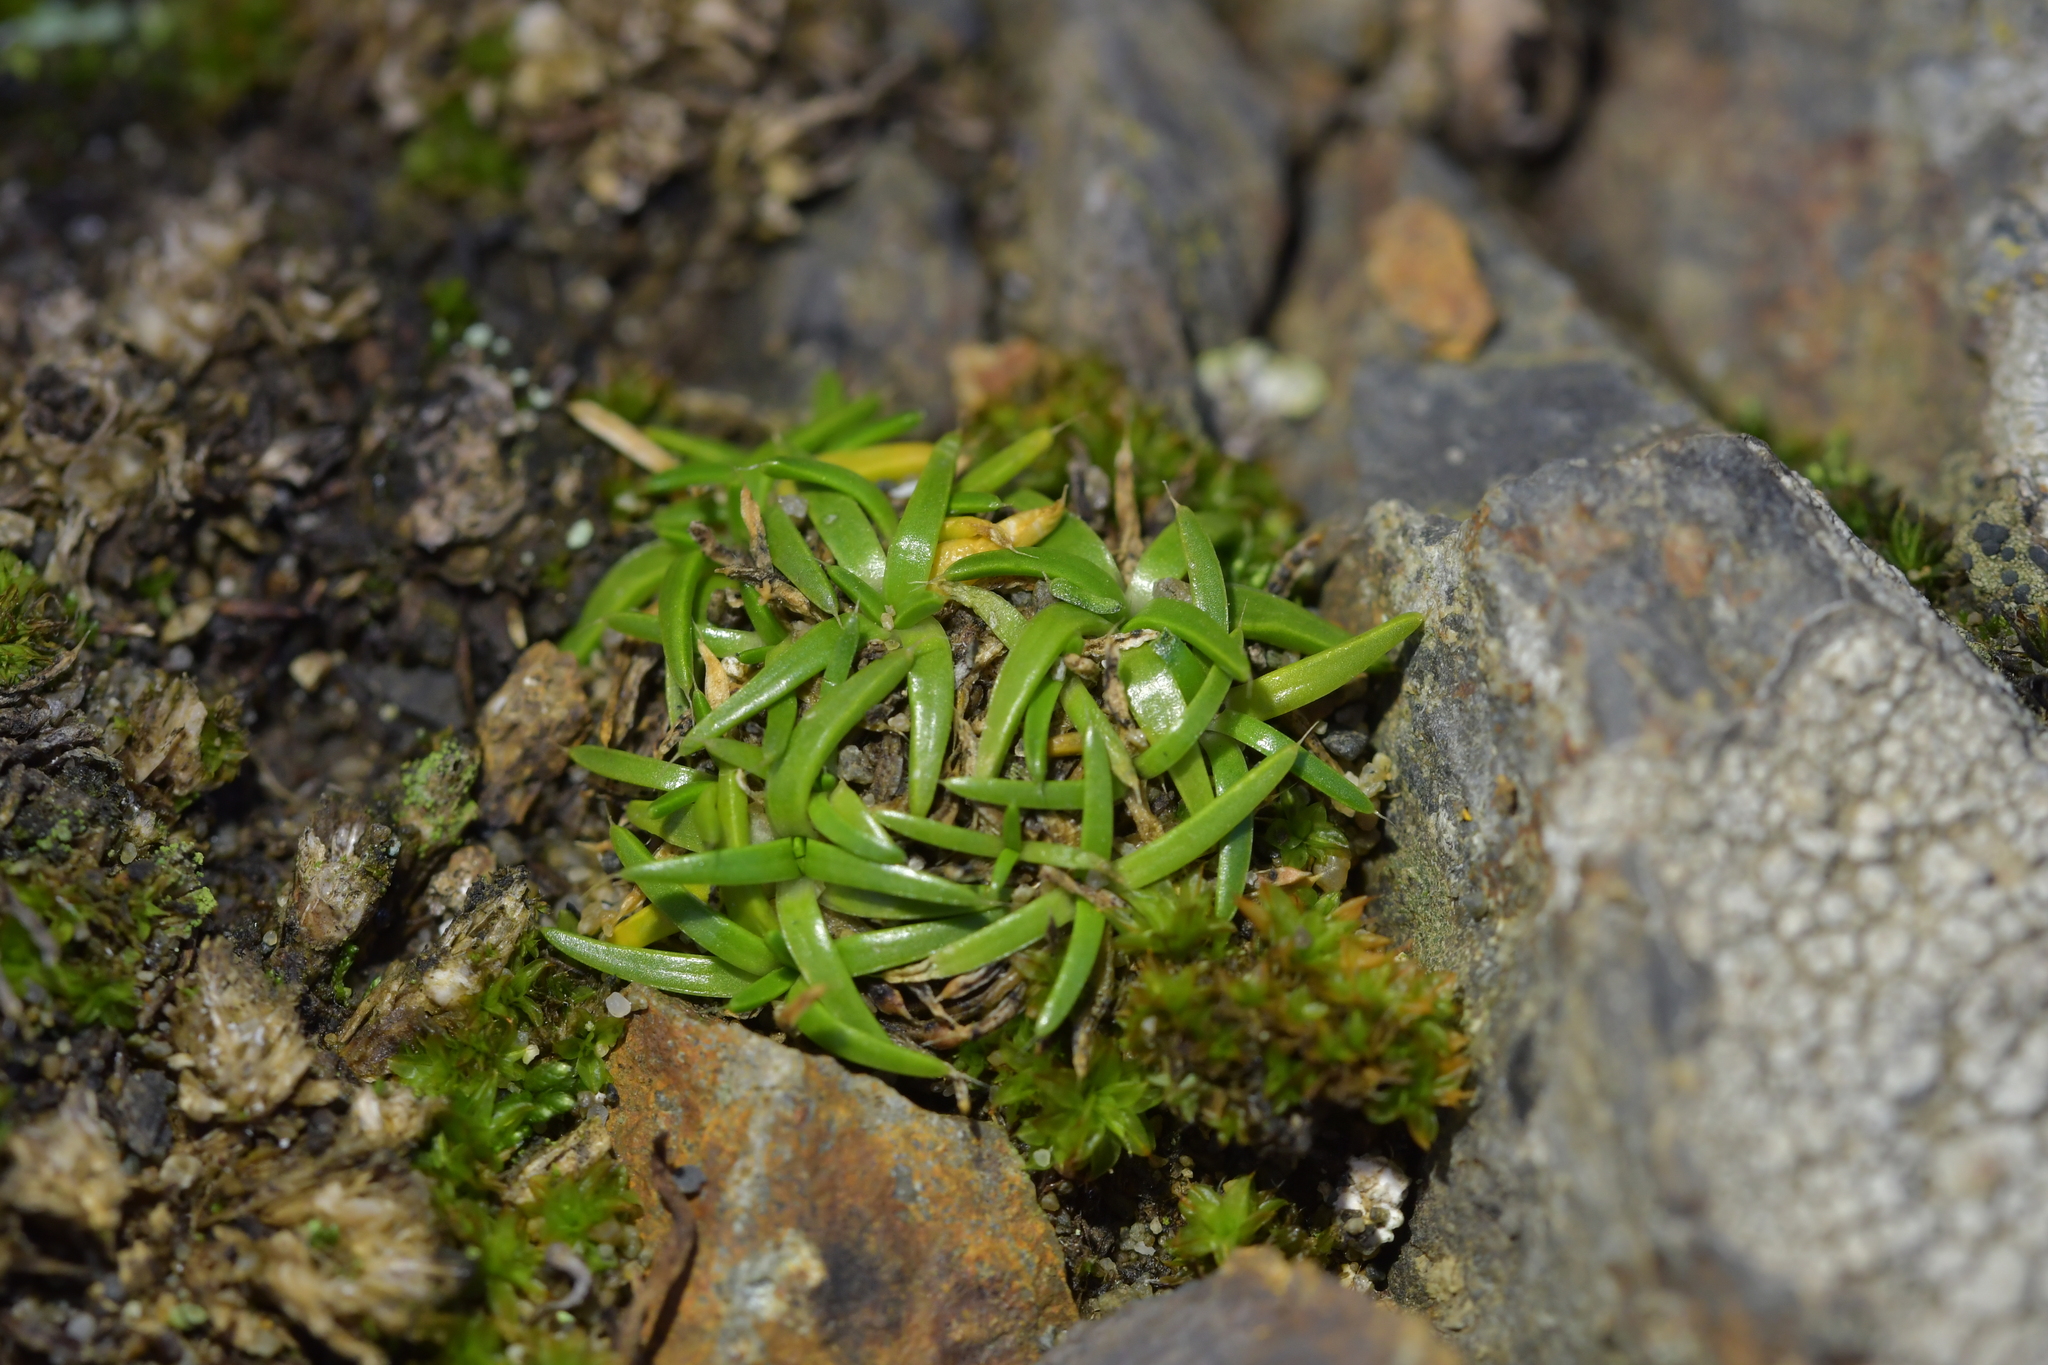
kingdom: Plantae
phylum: Tracheophyta
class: Magnoliopsida
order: Caryophyllales
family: Caryophyllaceae
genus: Sagina
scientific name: Sagina procumbens
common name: Procumbent pearlwort
